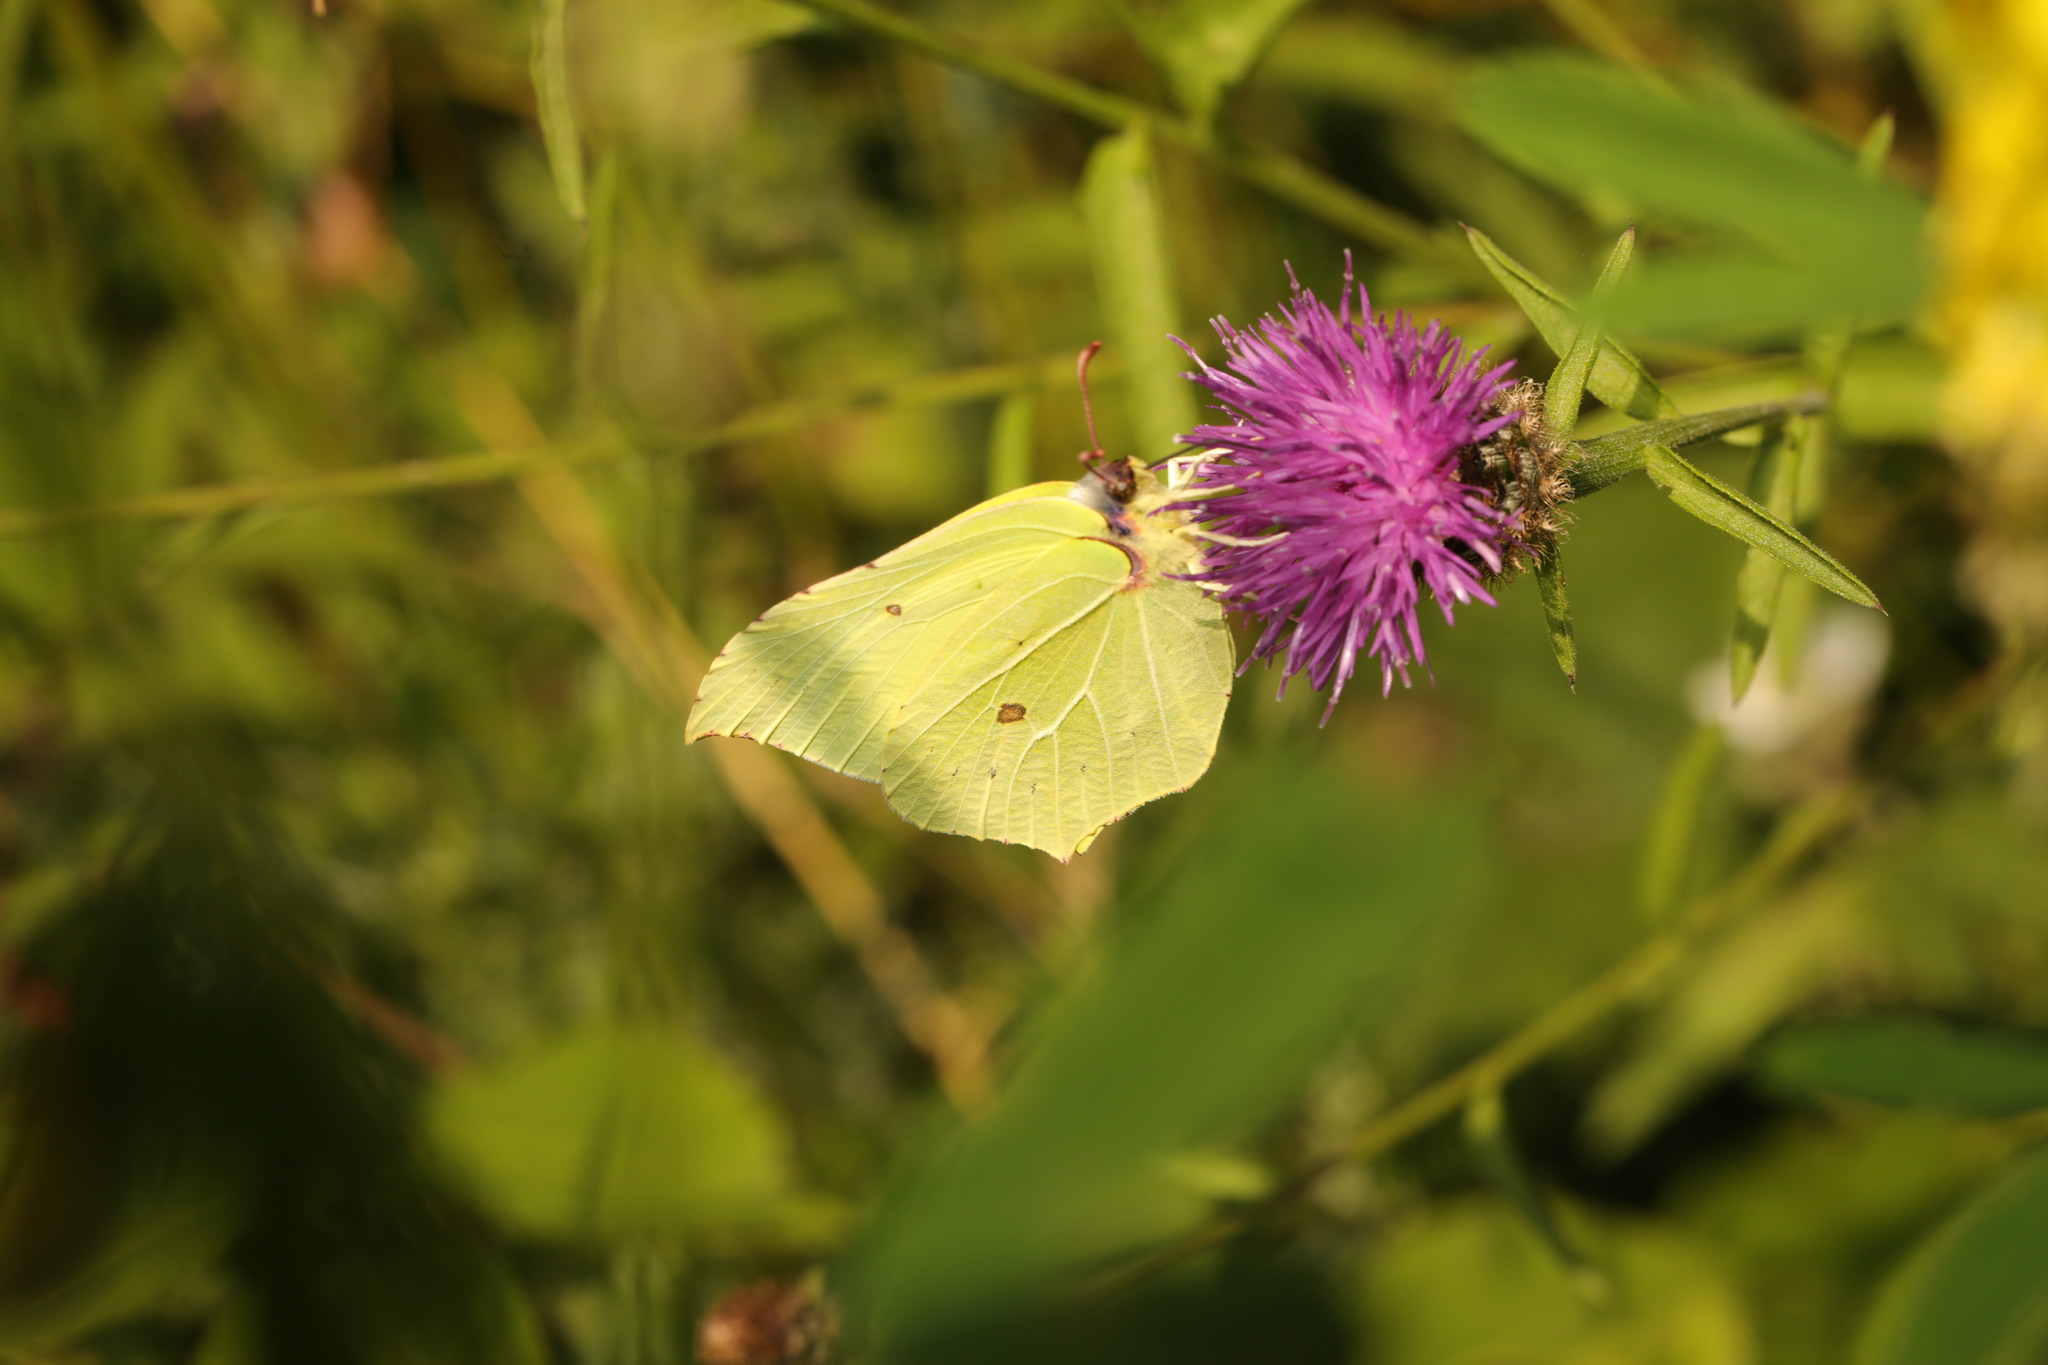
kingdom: Animalia
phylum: Arthropoda
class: Insecta
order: Lepidoptera
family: Pieridae
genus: Gonepteryx
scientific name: Gonepteryx rhamni
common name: Brimstone
